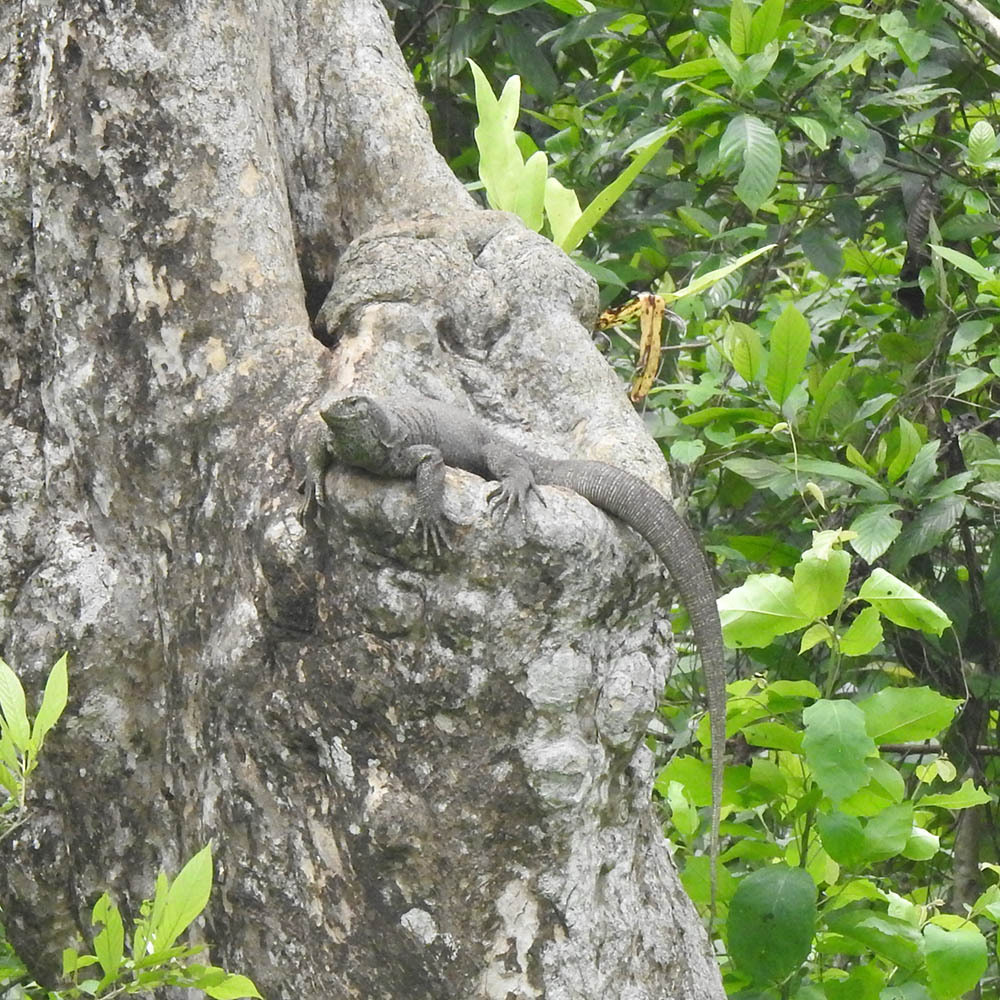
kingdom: Animalia
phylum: Chordata
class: Squamata
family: Varanidae
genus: Varanus
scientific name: Varanus bengalensis
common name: Bengal monitor
